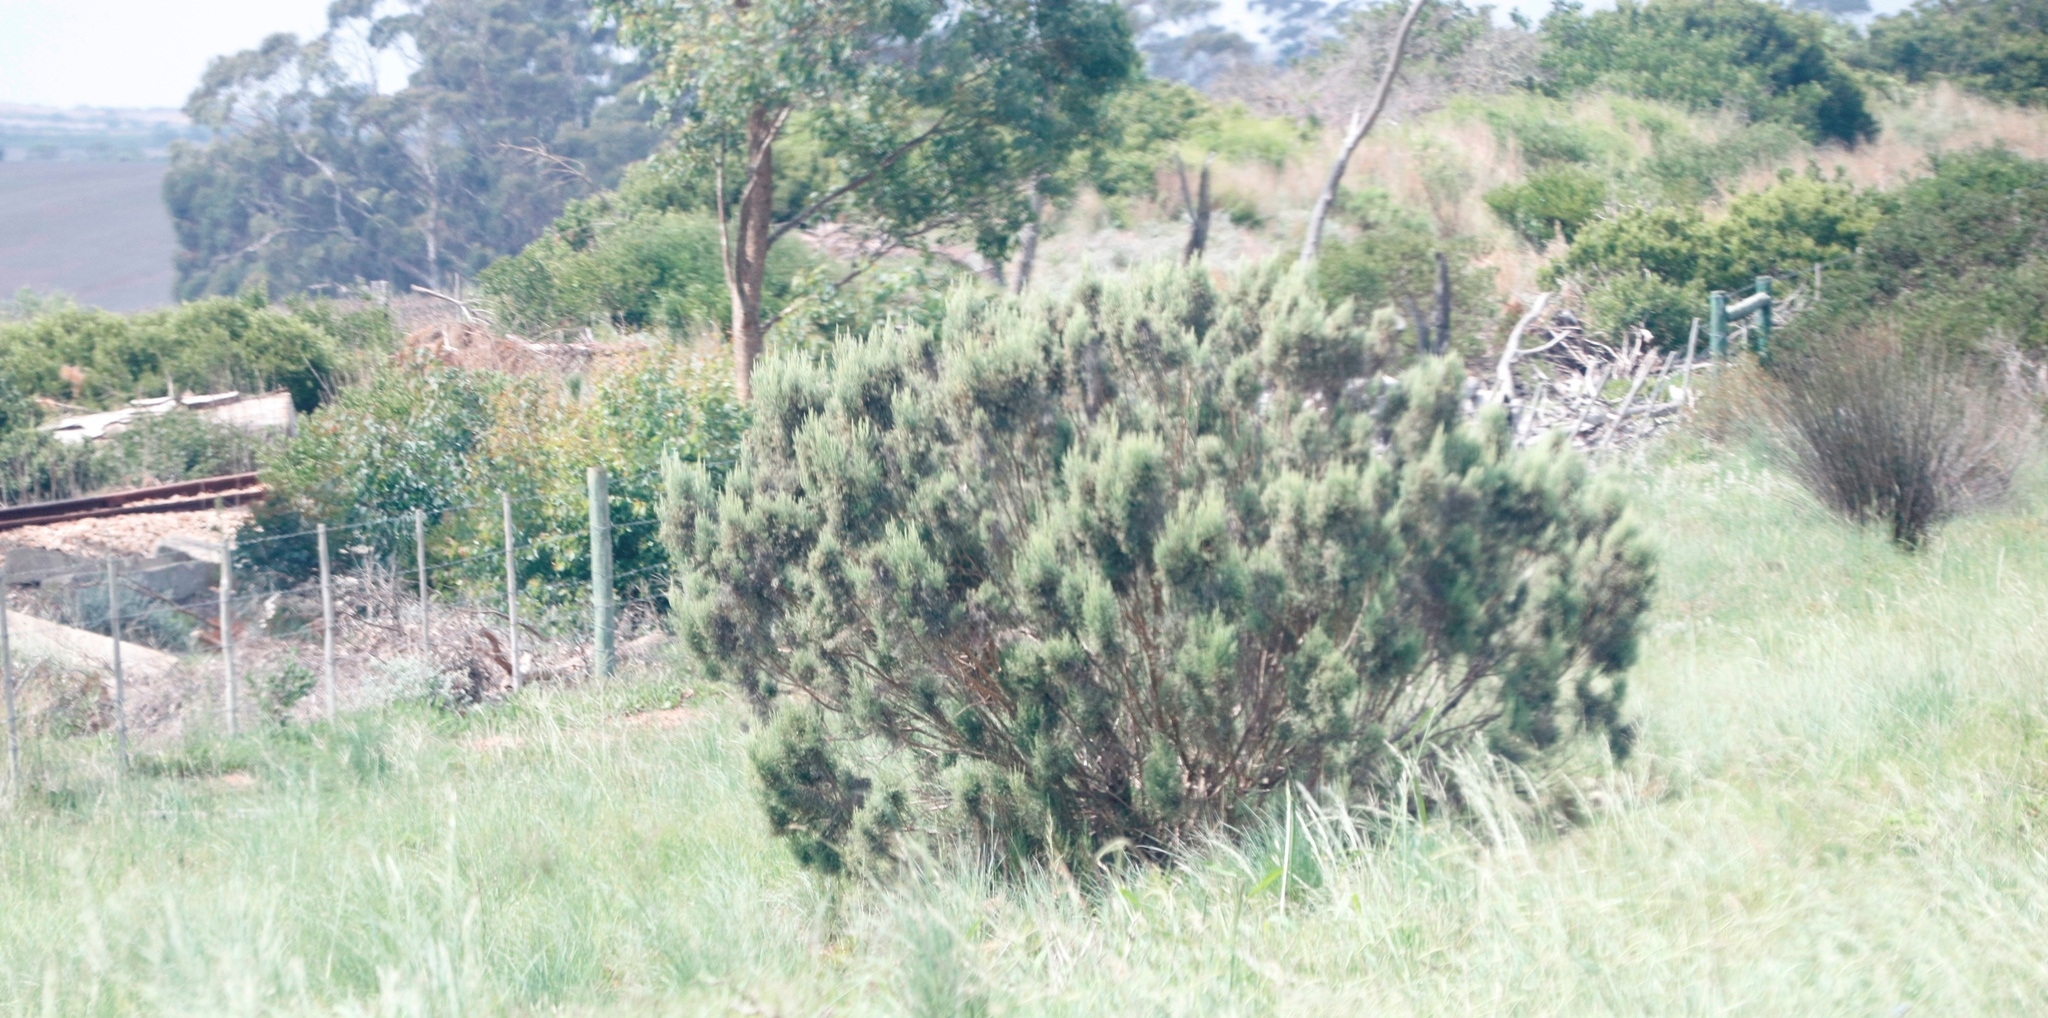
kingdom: Plantae
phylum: Tracheophyta
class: Magnoliopsida
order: Proteales
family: Proteaceae
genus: Leucadendron
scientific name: Leucadendron galpinii
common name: Hairless conebush
